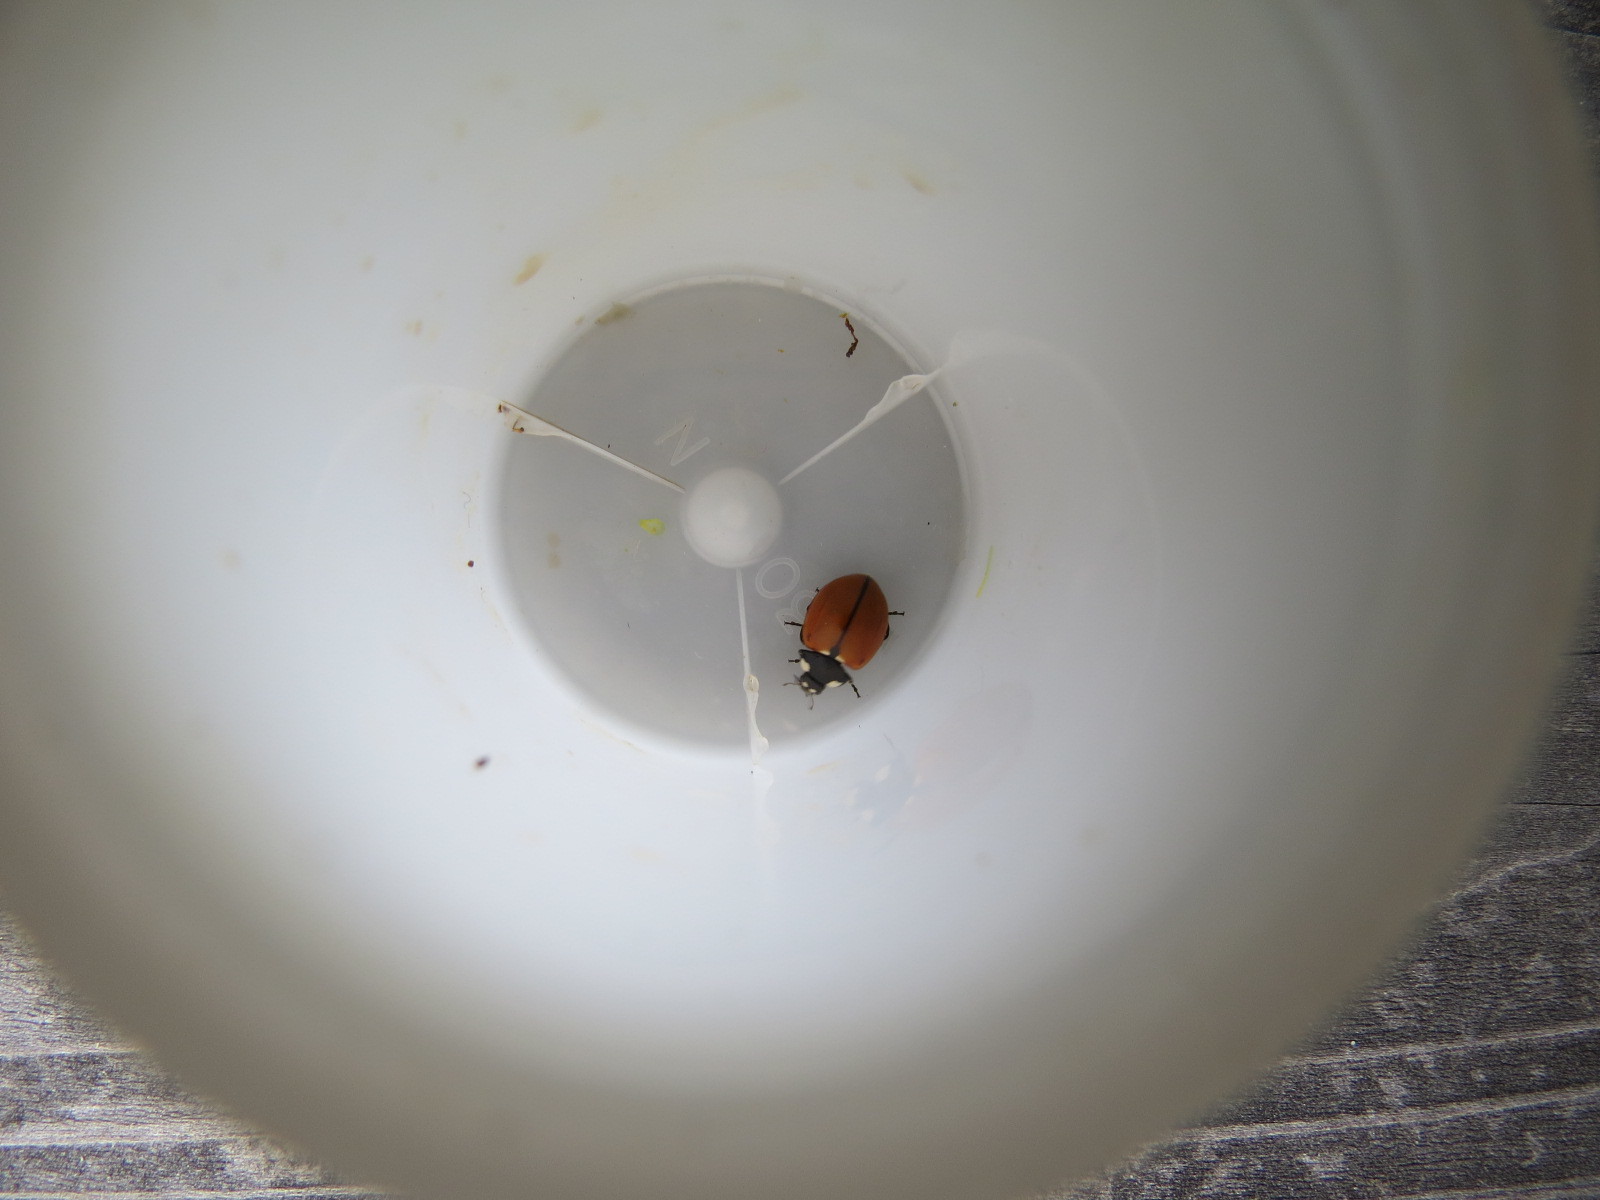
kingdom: Animalia
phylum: Arthropoda
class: Insecta
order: Coleoptera
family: Coccinellidae
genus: Coccinella
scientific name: Coccinella californica
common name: Lady beetle
